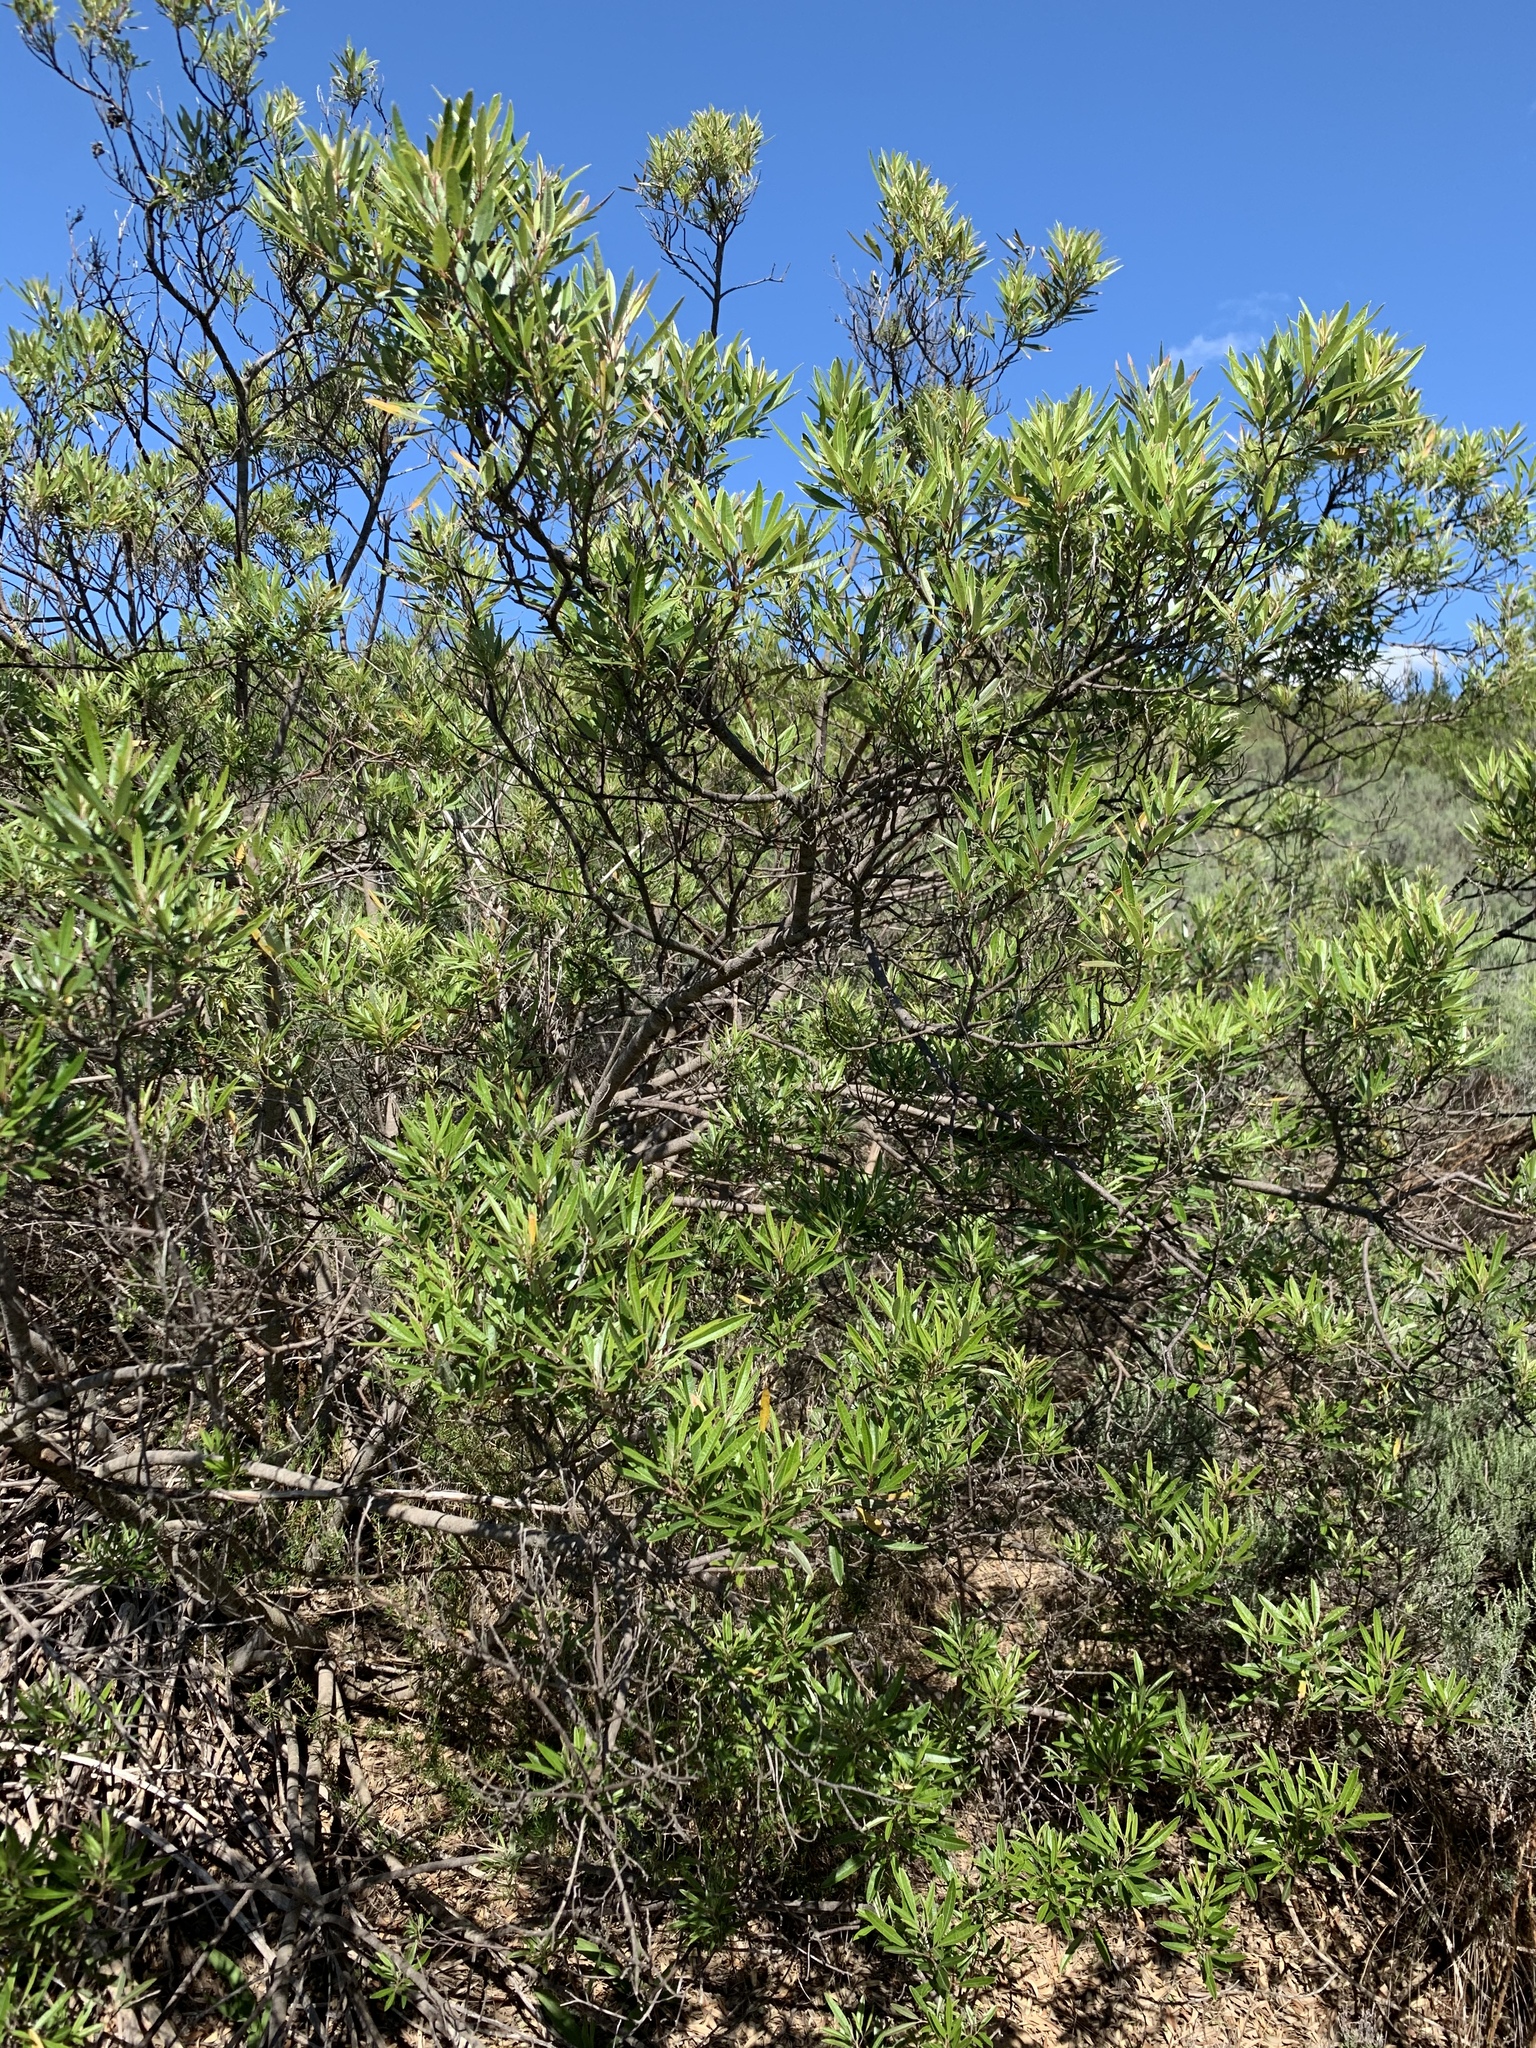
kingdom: Plantae
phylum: Tracheophyta
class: Magnoliopsida
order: Sapindales
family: Anacardiaceae
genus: Searsia
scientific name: Searsia angustifolia
